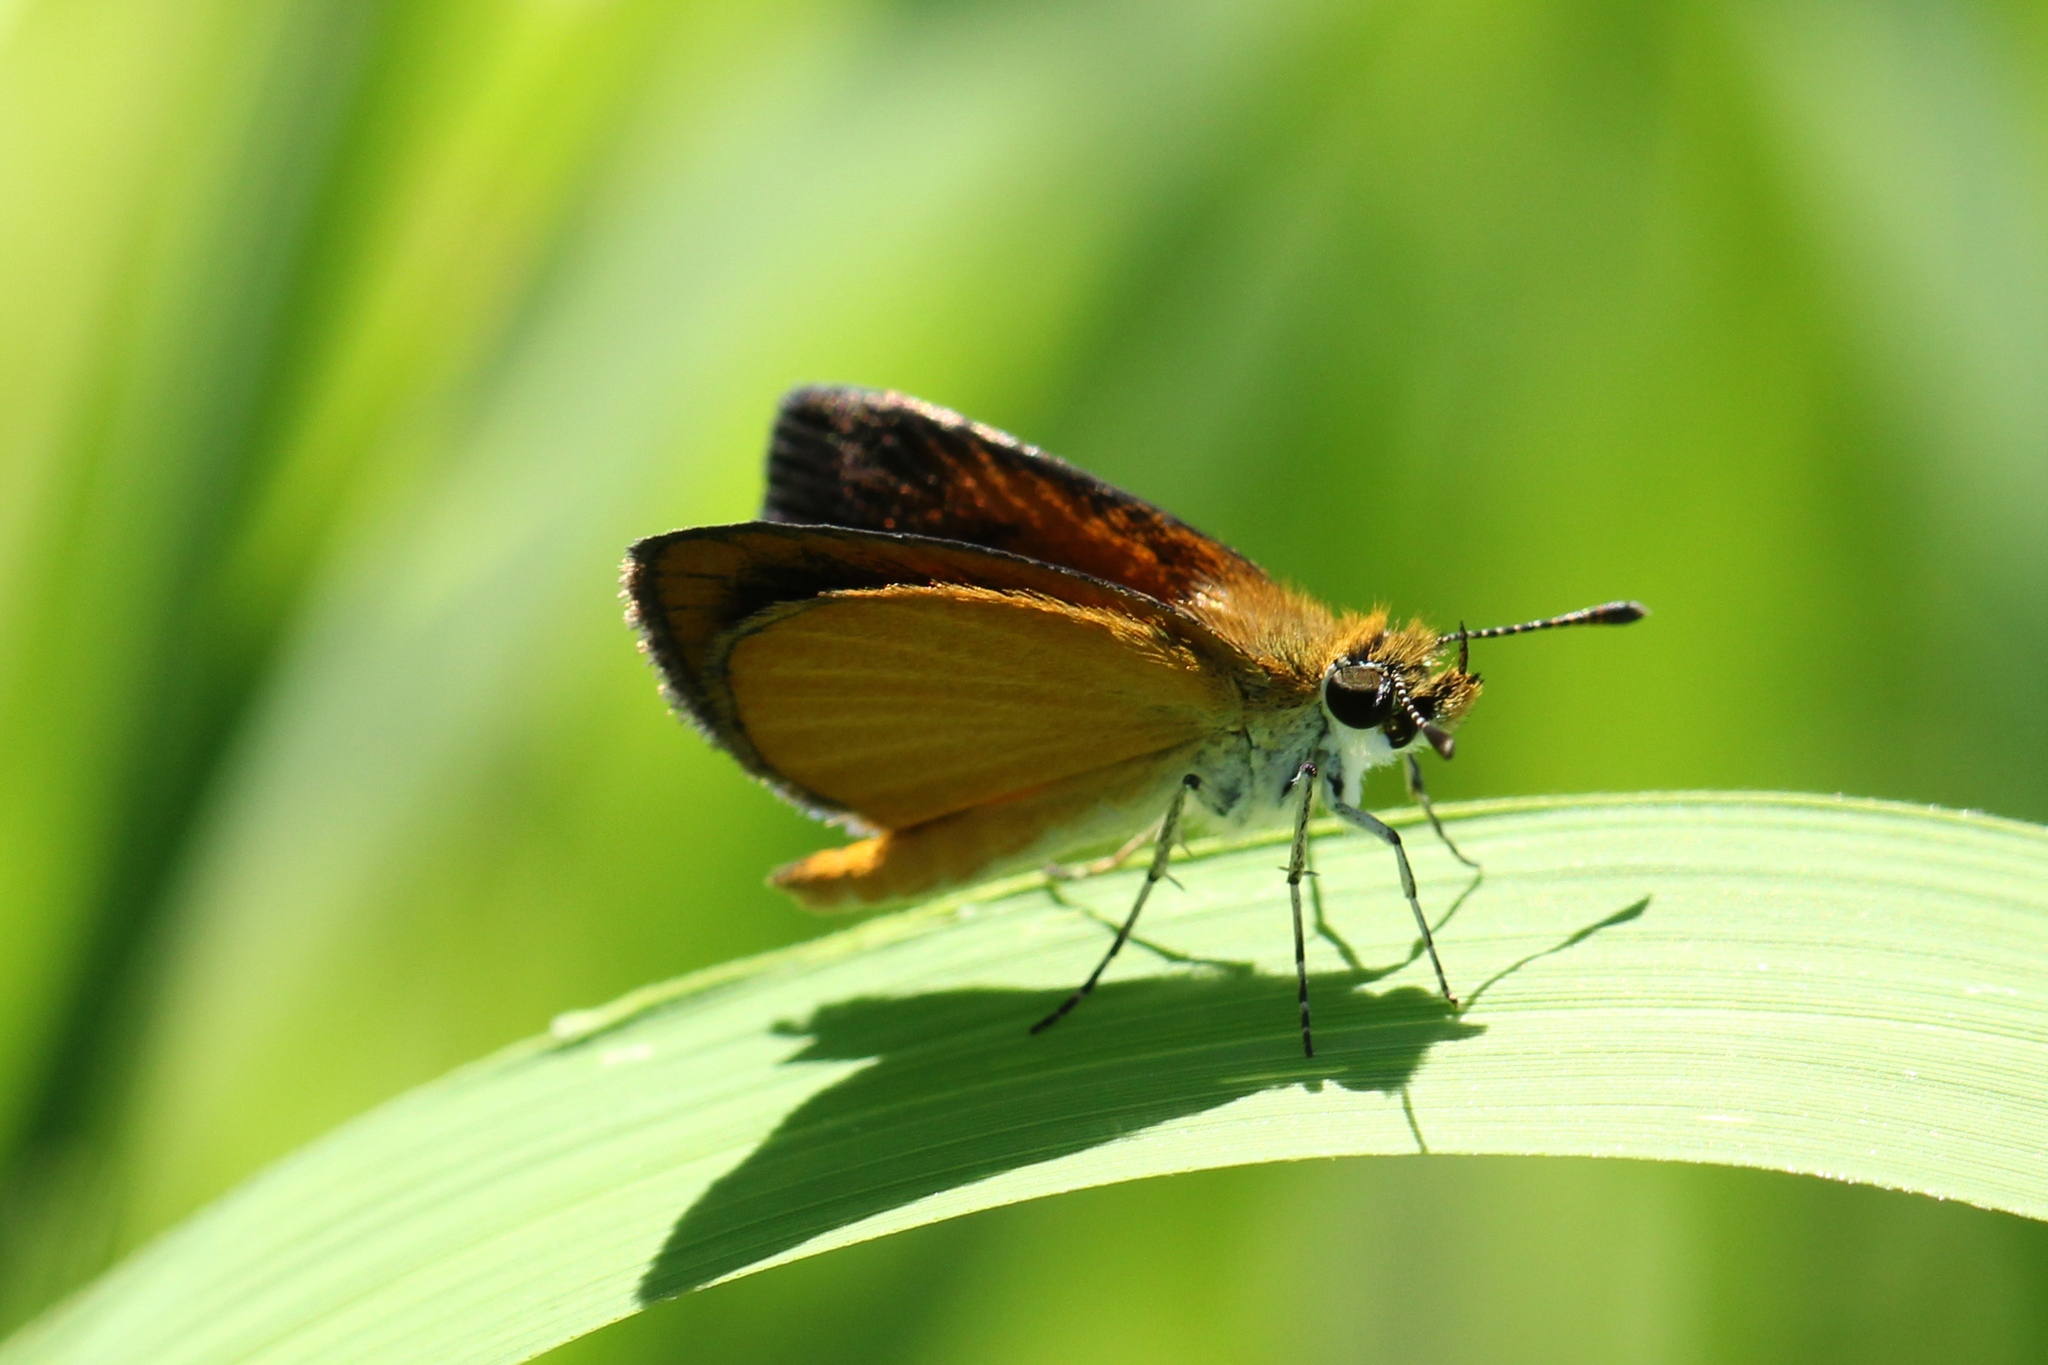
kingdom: Animalia
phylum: Arthropoda
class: Insecta
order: Lepidoptera
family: Hesperiidae
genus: Ancyloxypha
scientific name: Ancyloxypha numitor
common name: Least skipper
